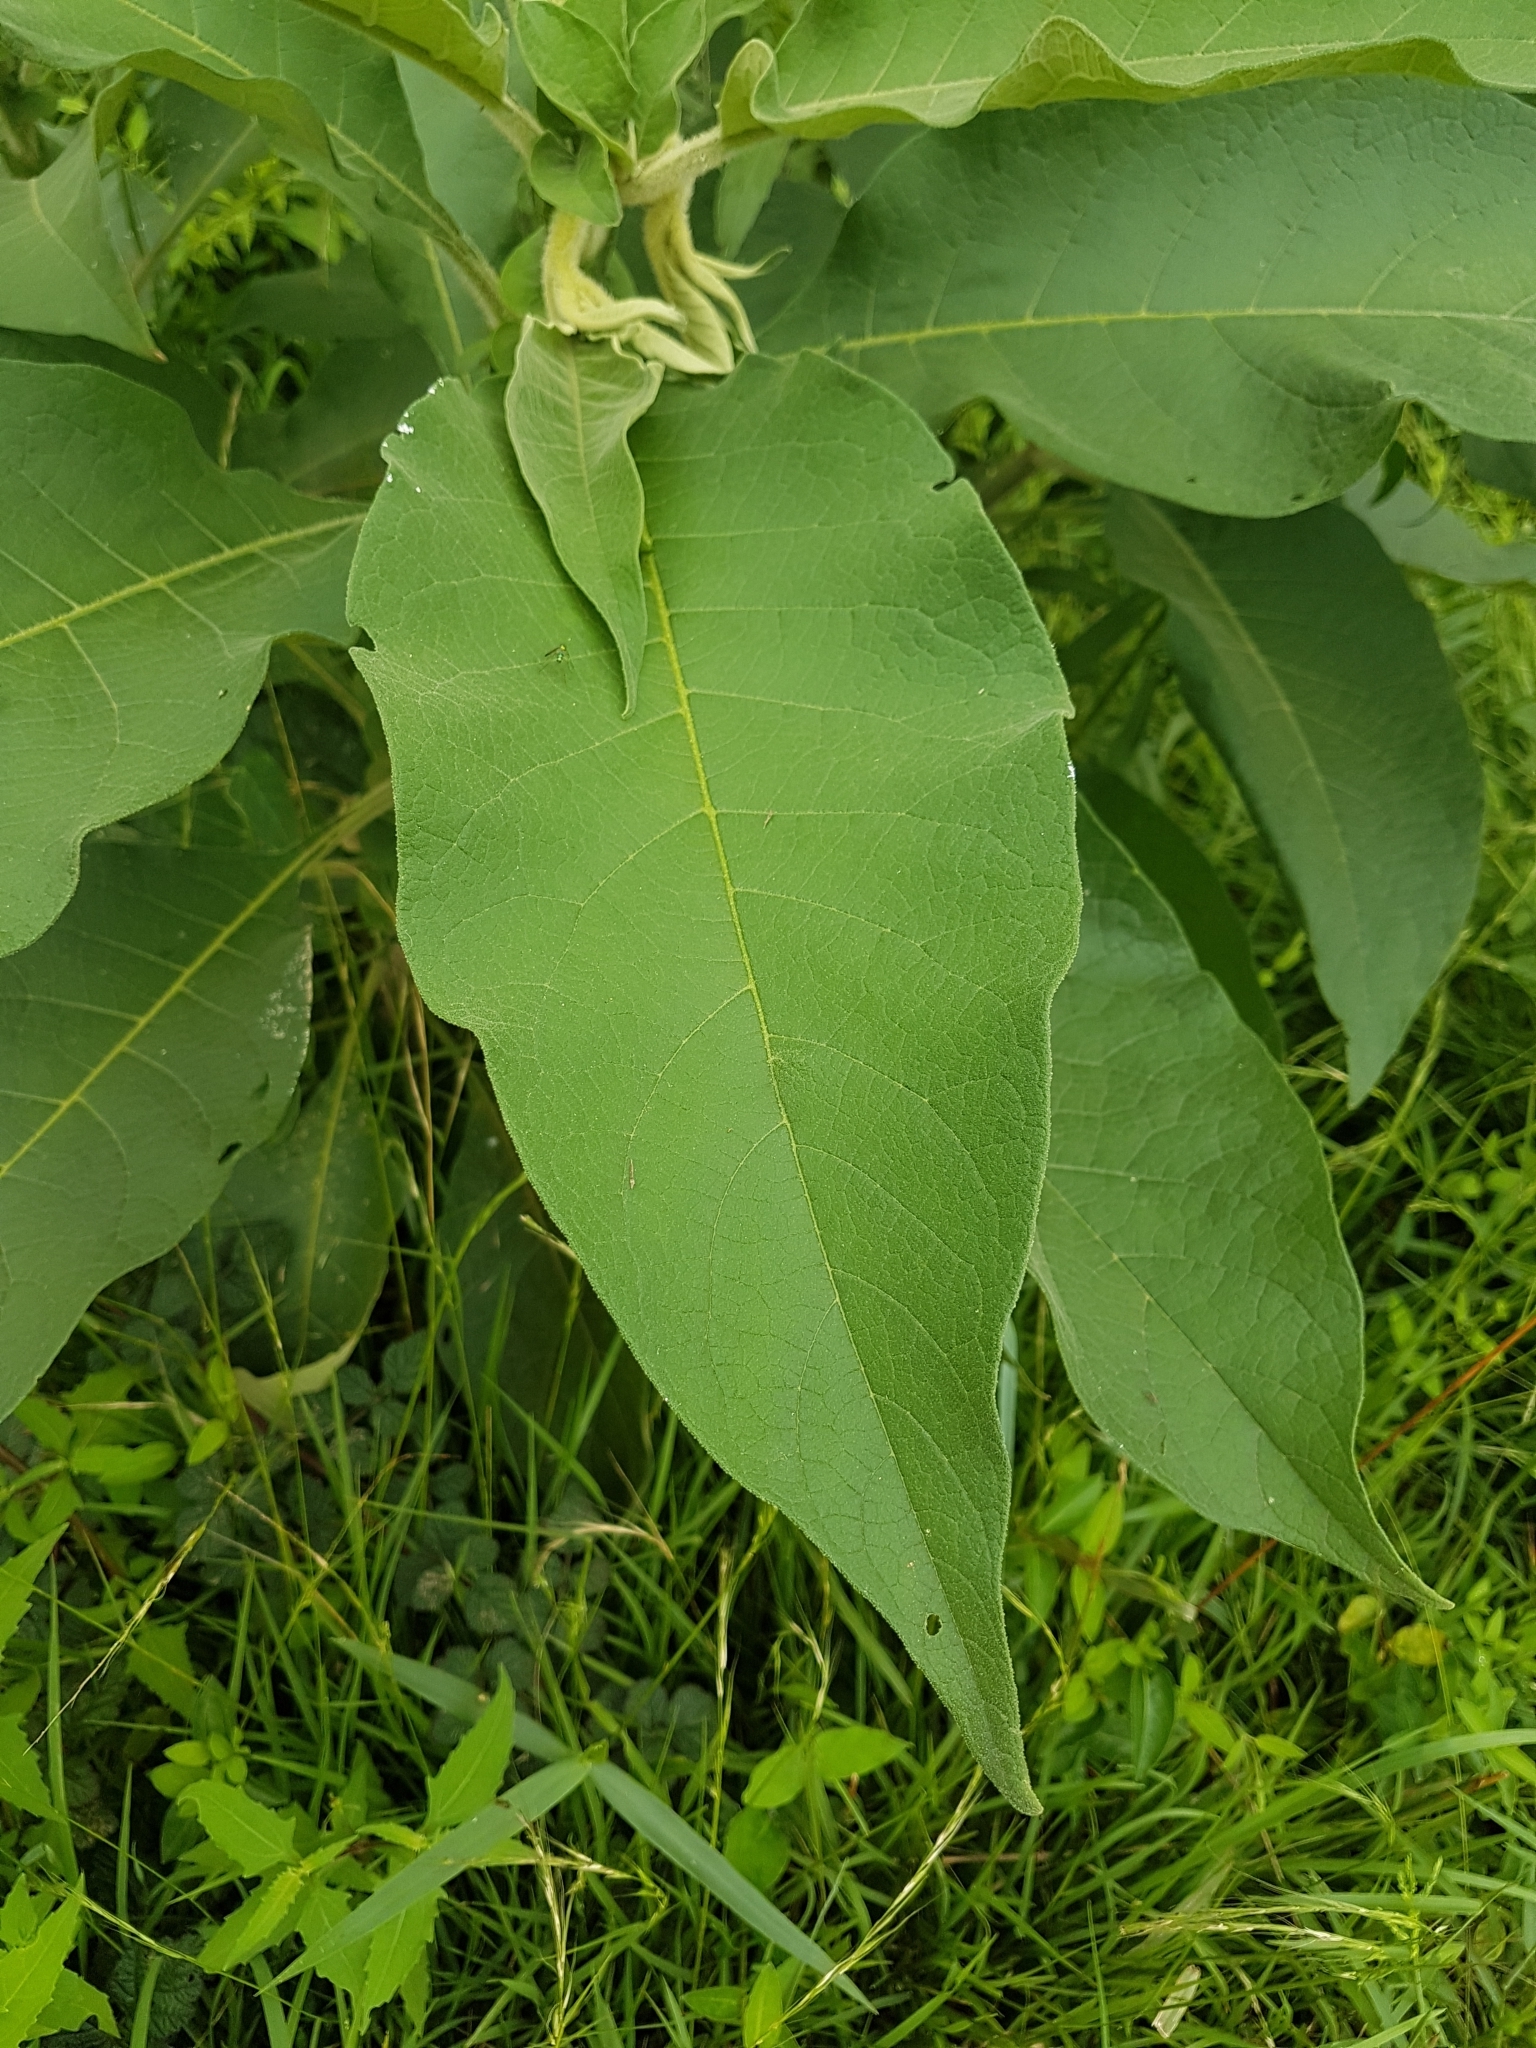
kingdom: Plantae
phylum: Tracheophyta
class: Magnoliopsida
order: Solanales
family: Solanaceae
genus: Solanum
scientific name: Solanum mauritianum
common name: Earleaf nightshade
